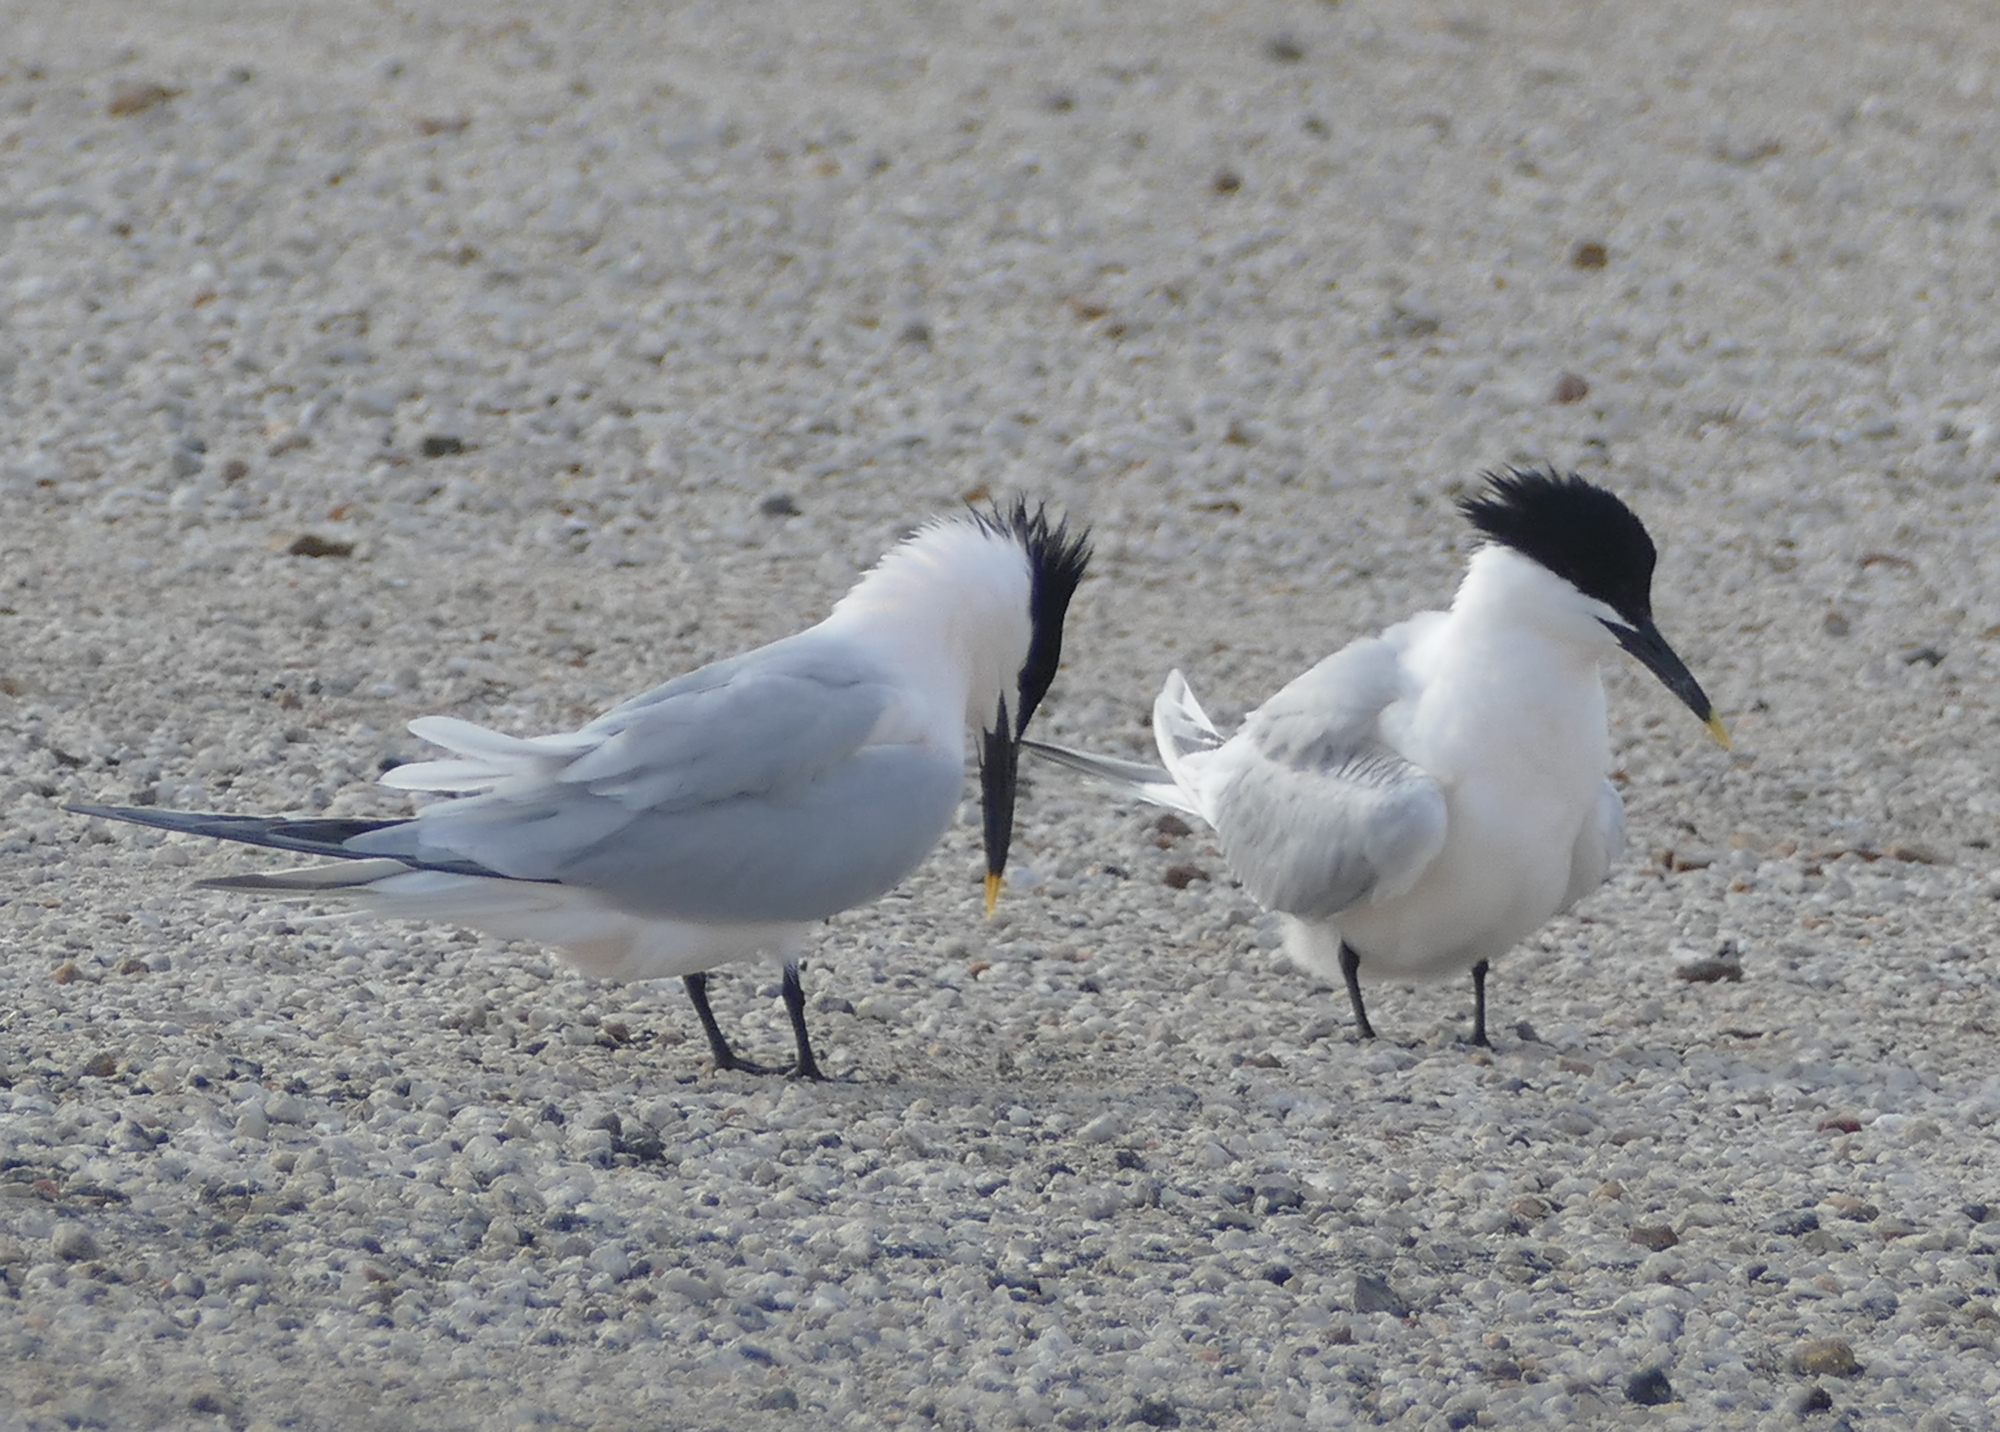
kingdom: Animalia
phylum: Chordata
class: Aves
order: Charadriiformes
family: Laridae
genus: Thalasseus
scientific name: Thalasseus sandvicensis
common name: Sandwich tern
